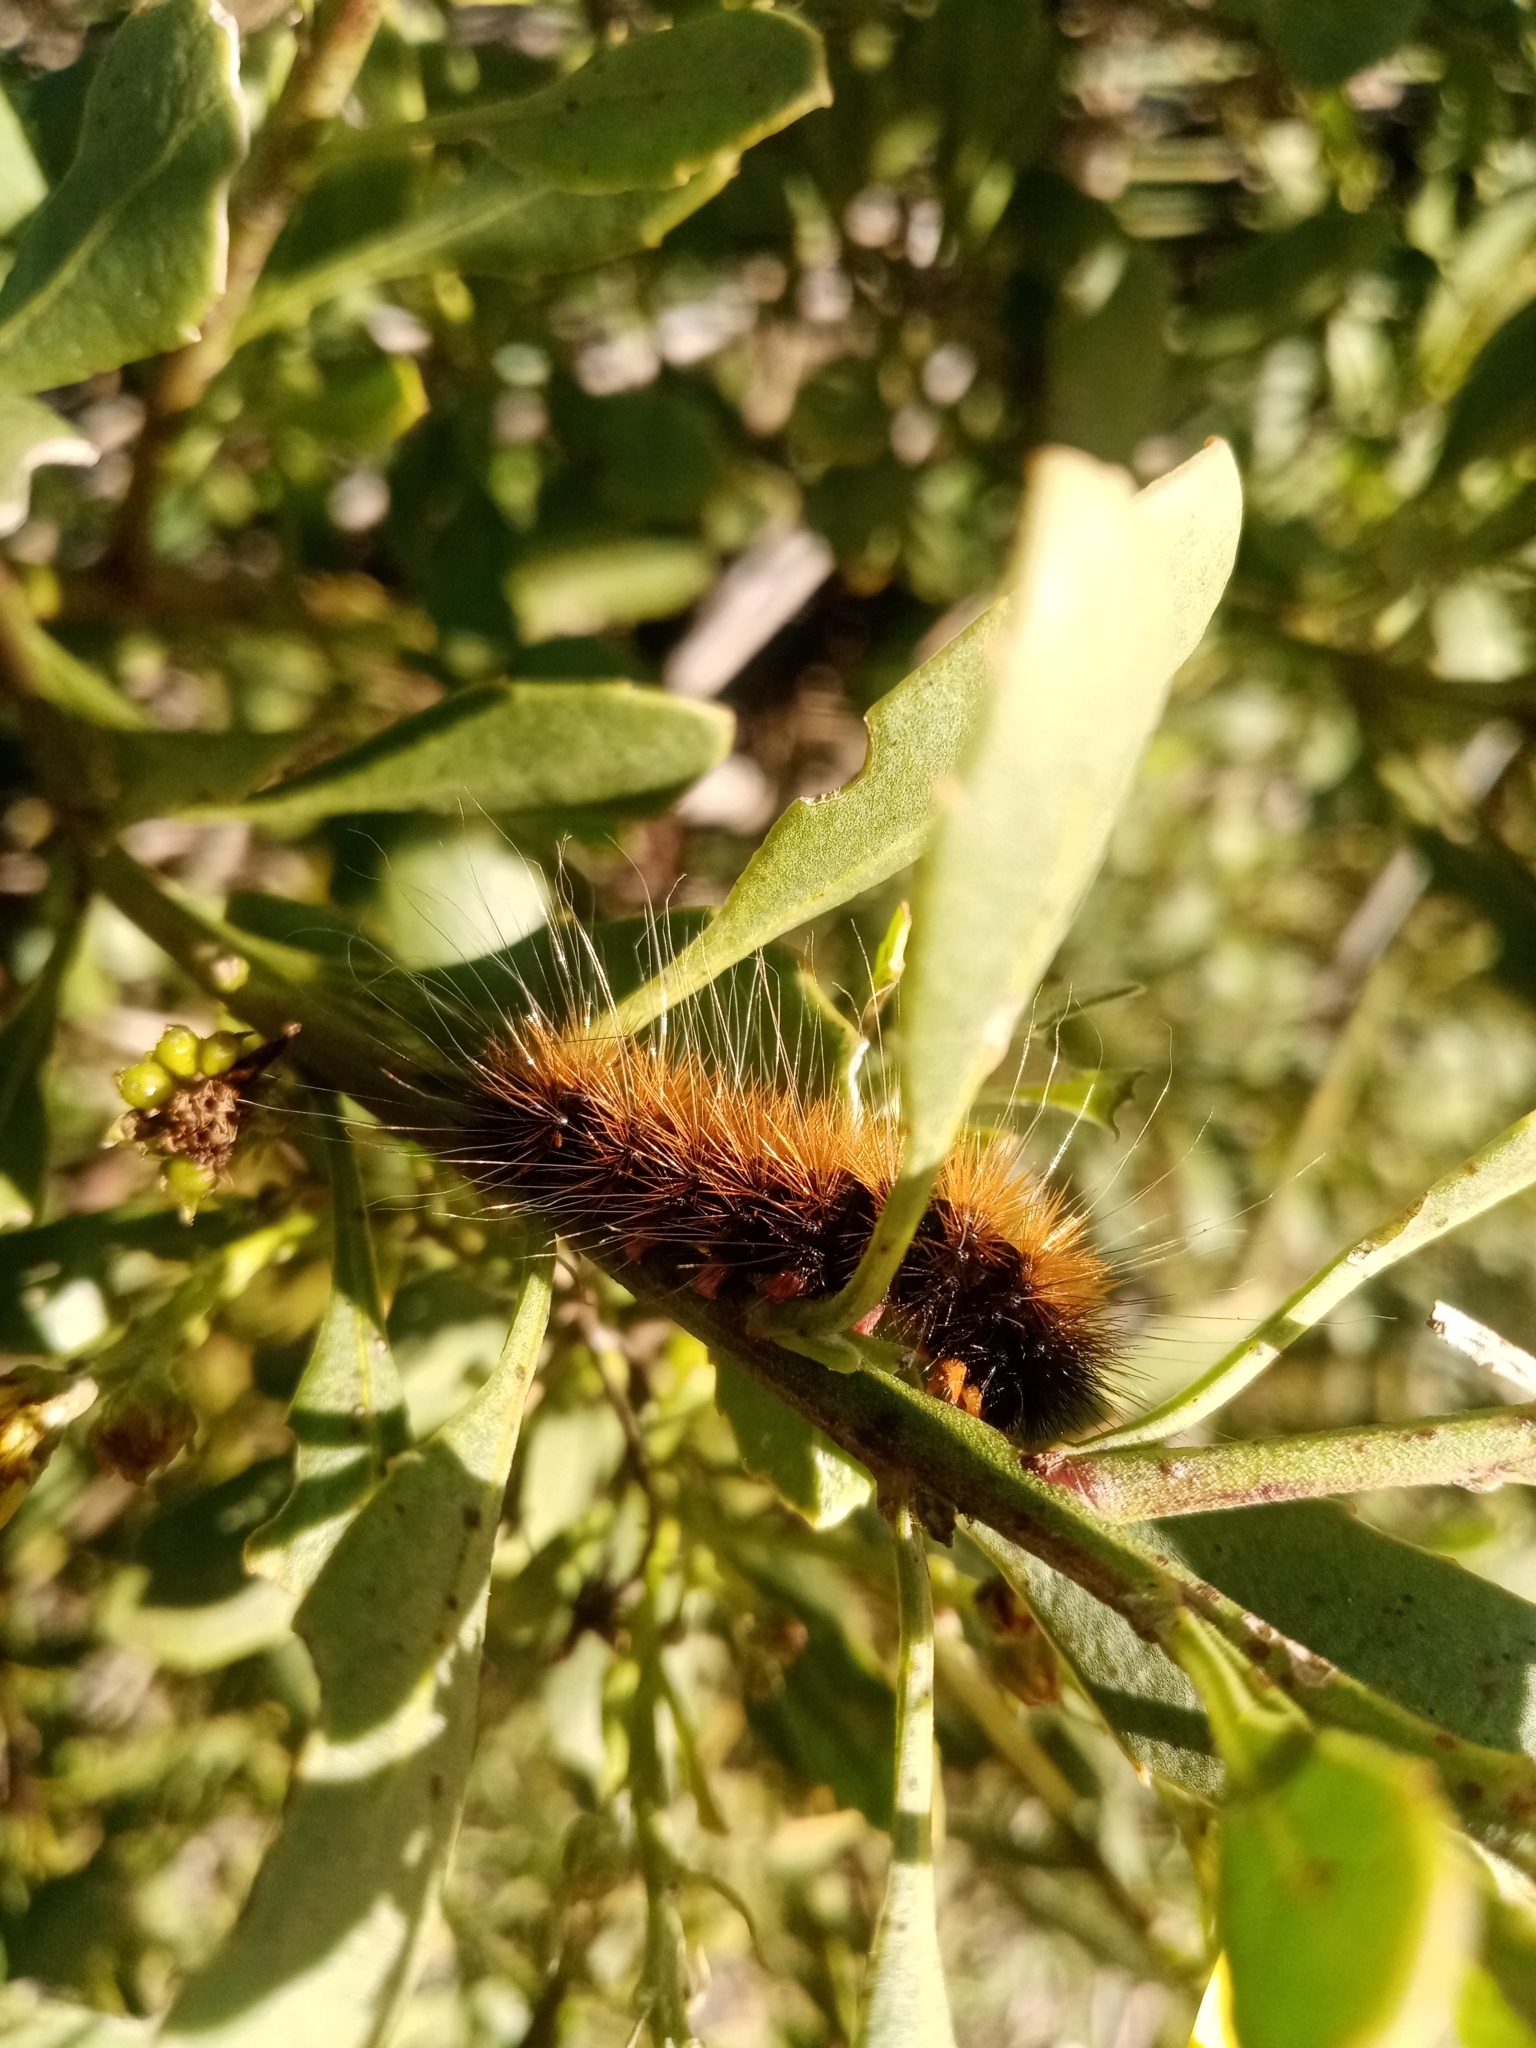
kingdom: Animalia
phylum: Arthropoda
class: Insecta
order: Lepidoptera
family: Erebidae
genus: Rhodogastria
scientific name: Rhodogastria amasis
